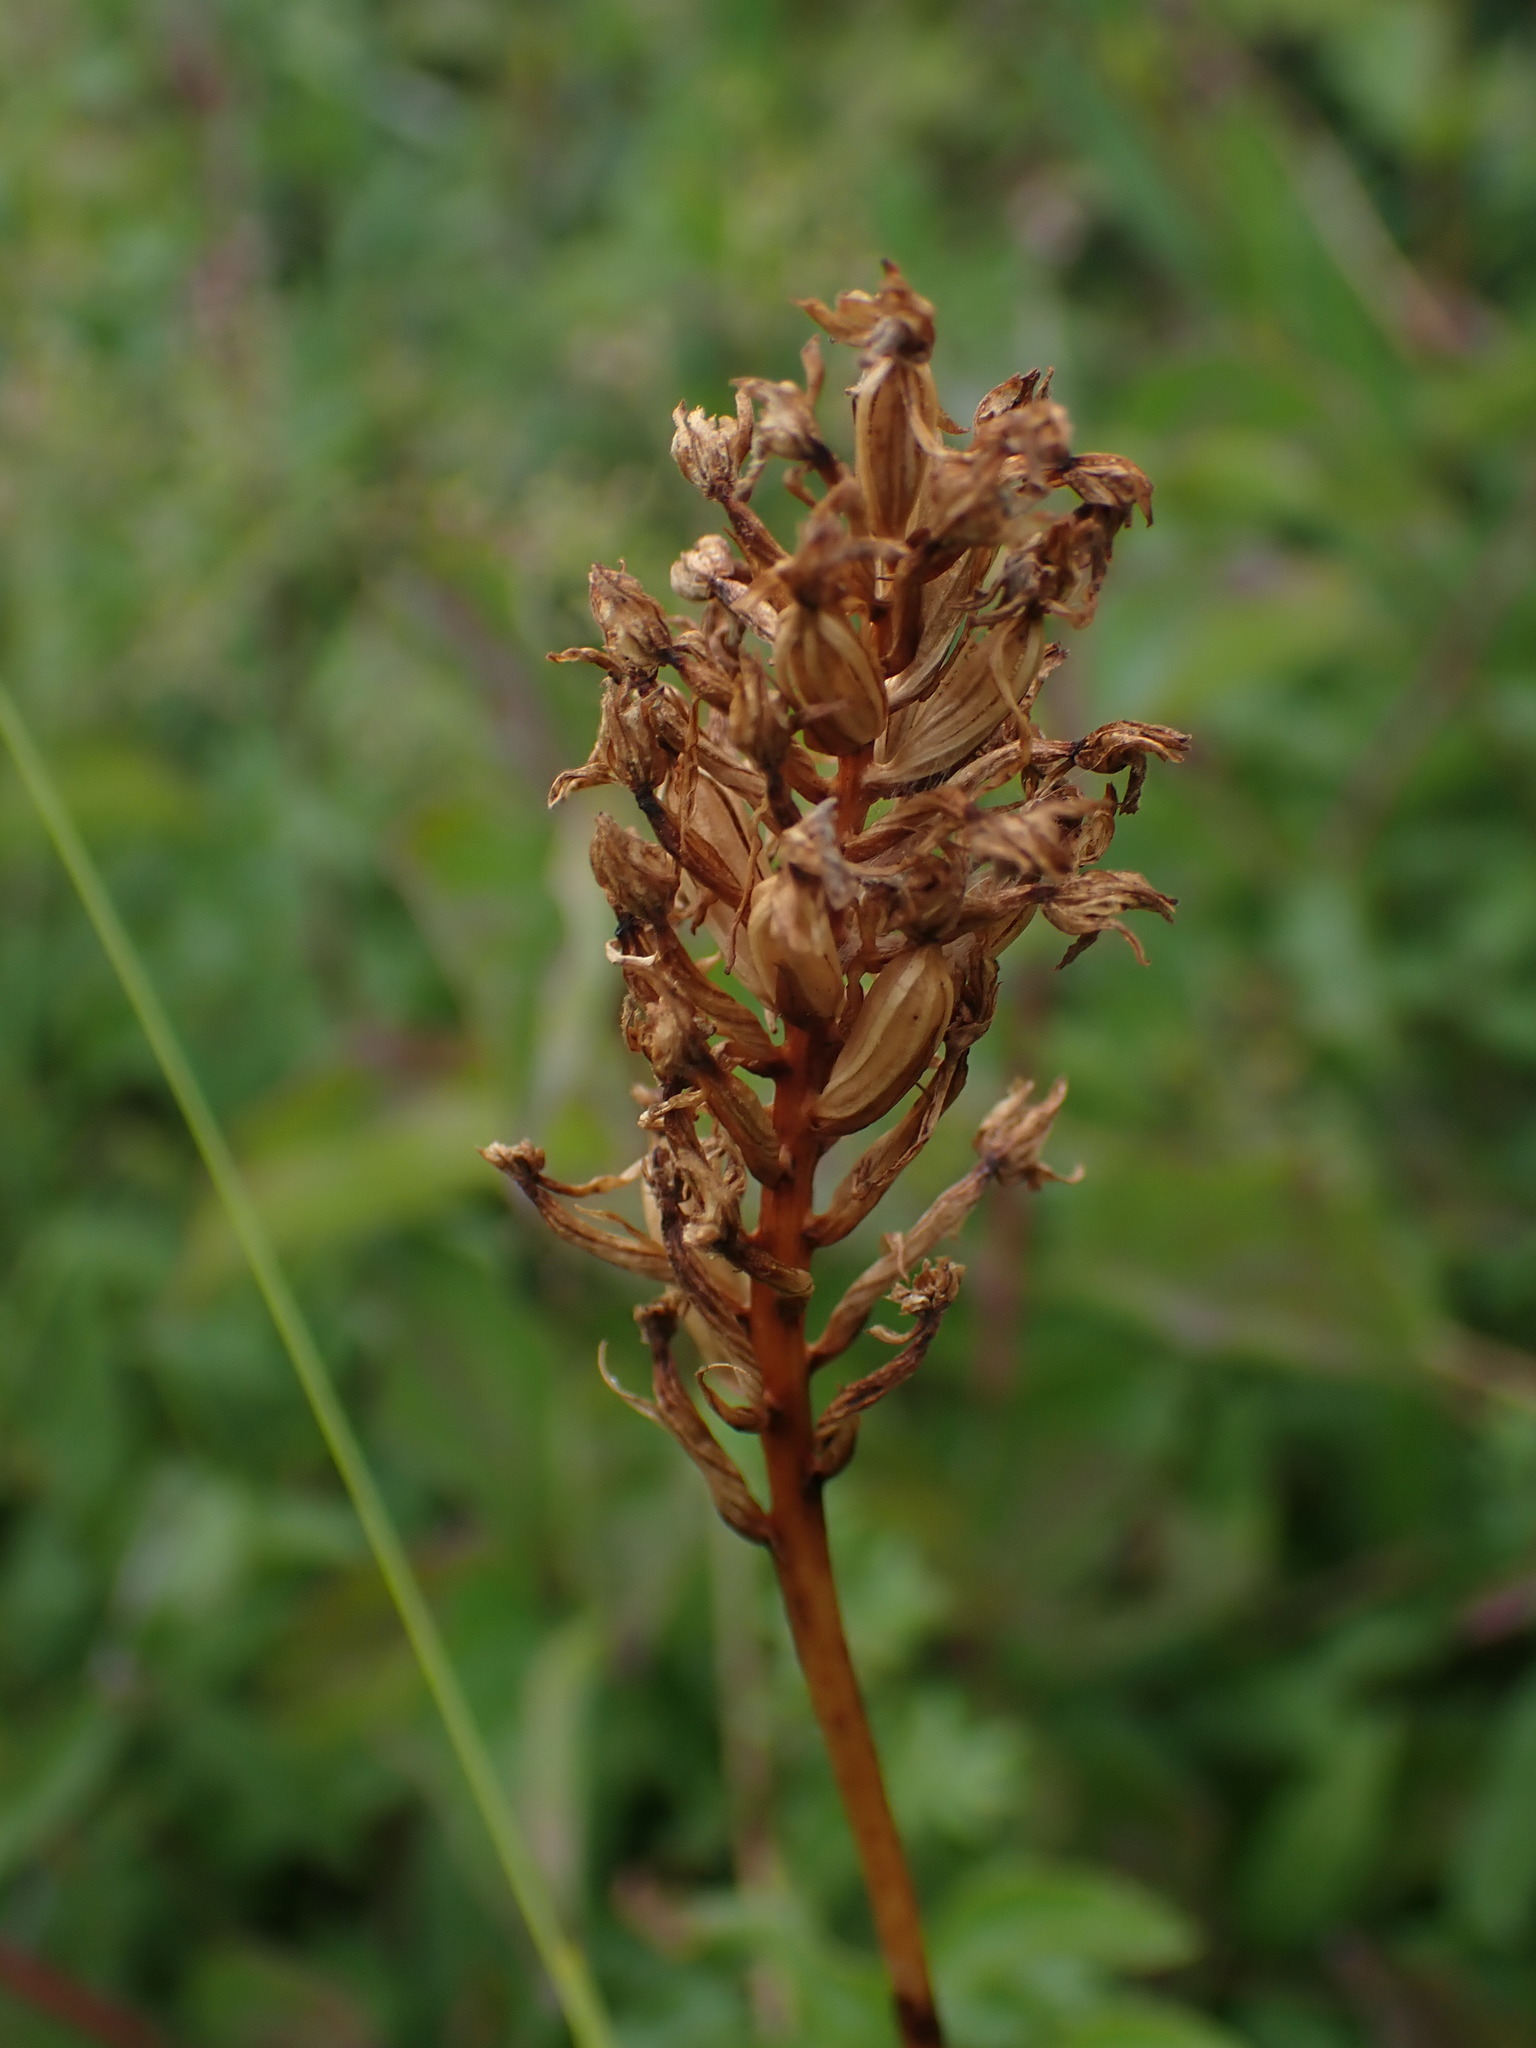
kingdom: Plantae
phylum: Tracheophyta
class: Liliopsida
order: Asparagales
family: Orchidaceae
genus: Anacamptis
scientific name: Anacamptis pyramidalis
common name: Pyramidal orchid
